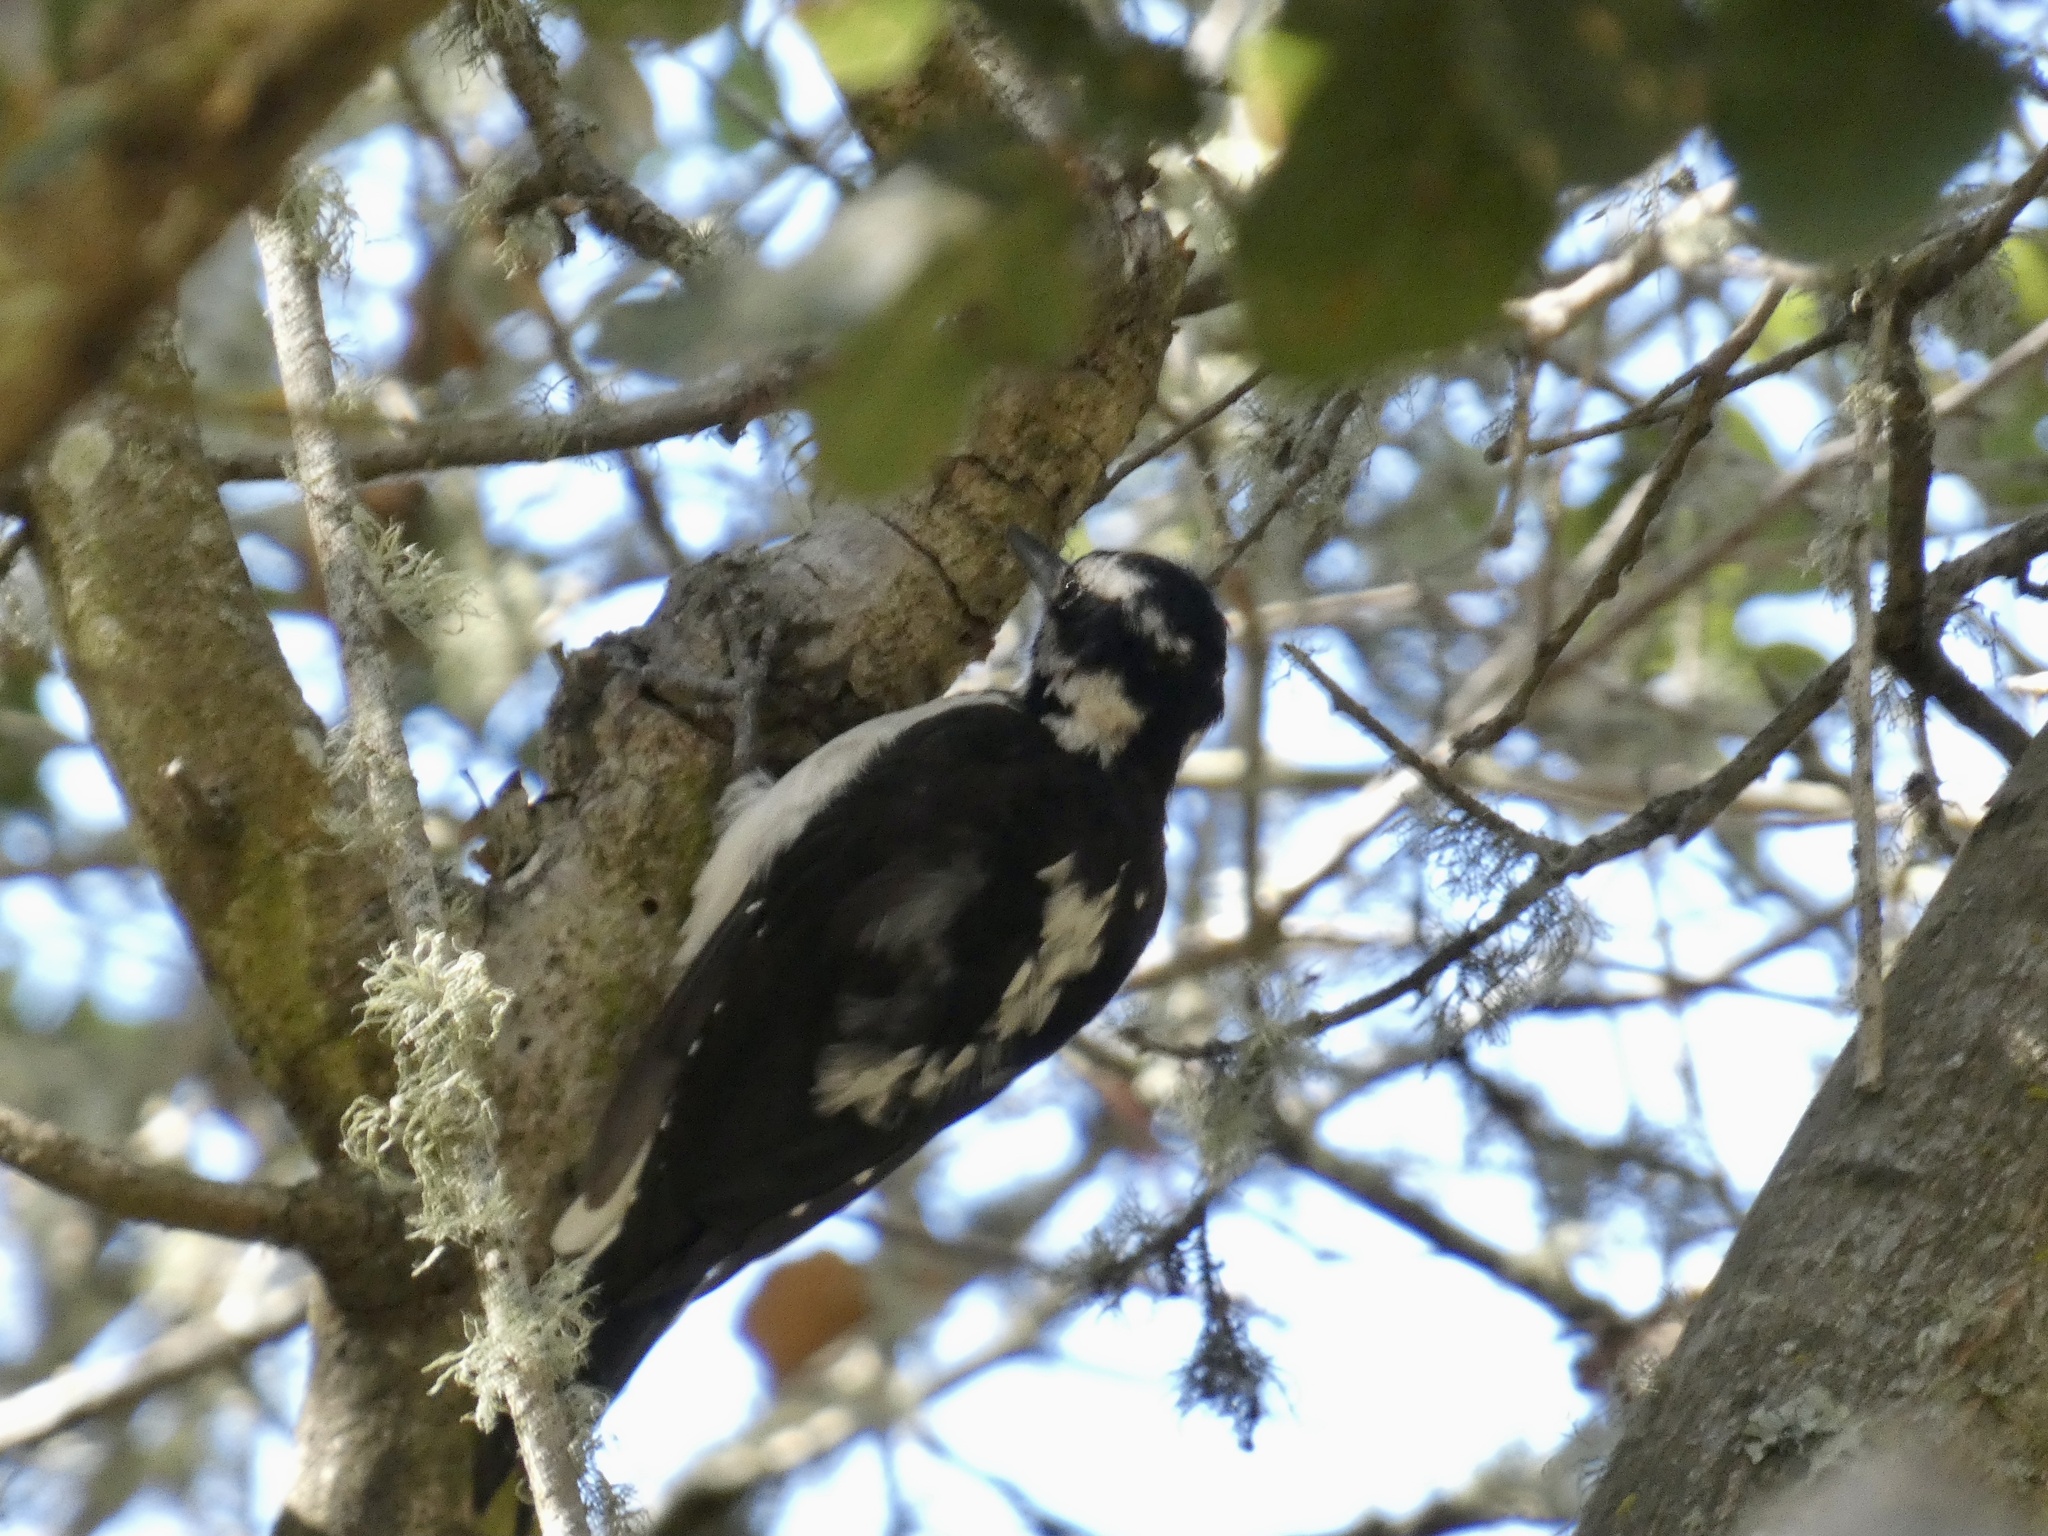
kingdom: Animalia
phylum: Chordata
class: Aves
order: Piciformes
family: Picidae
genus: Leuconotopicus
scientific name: Leuconotopicus villosus
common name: Hairy woodpecker
